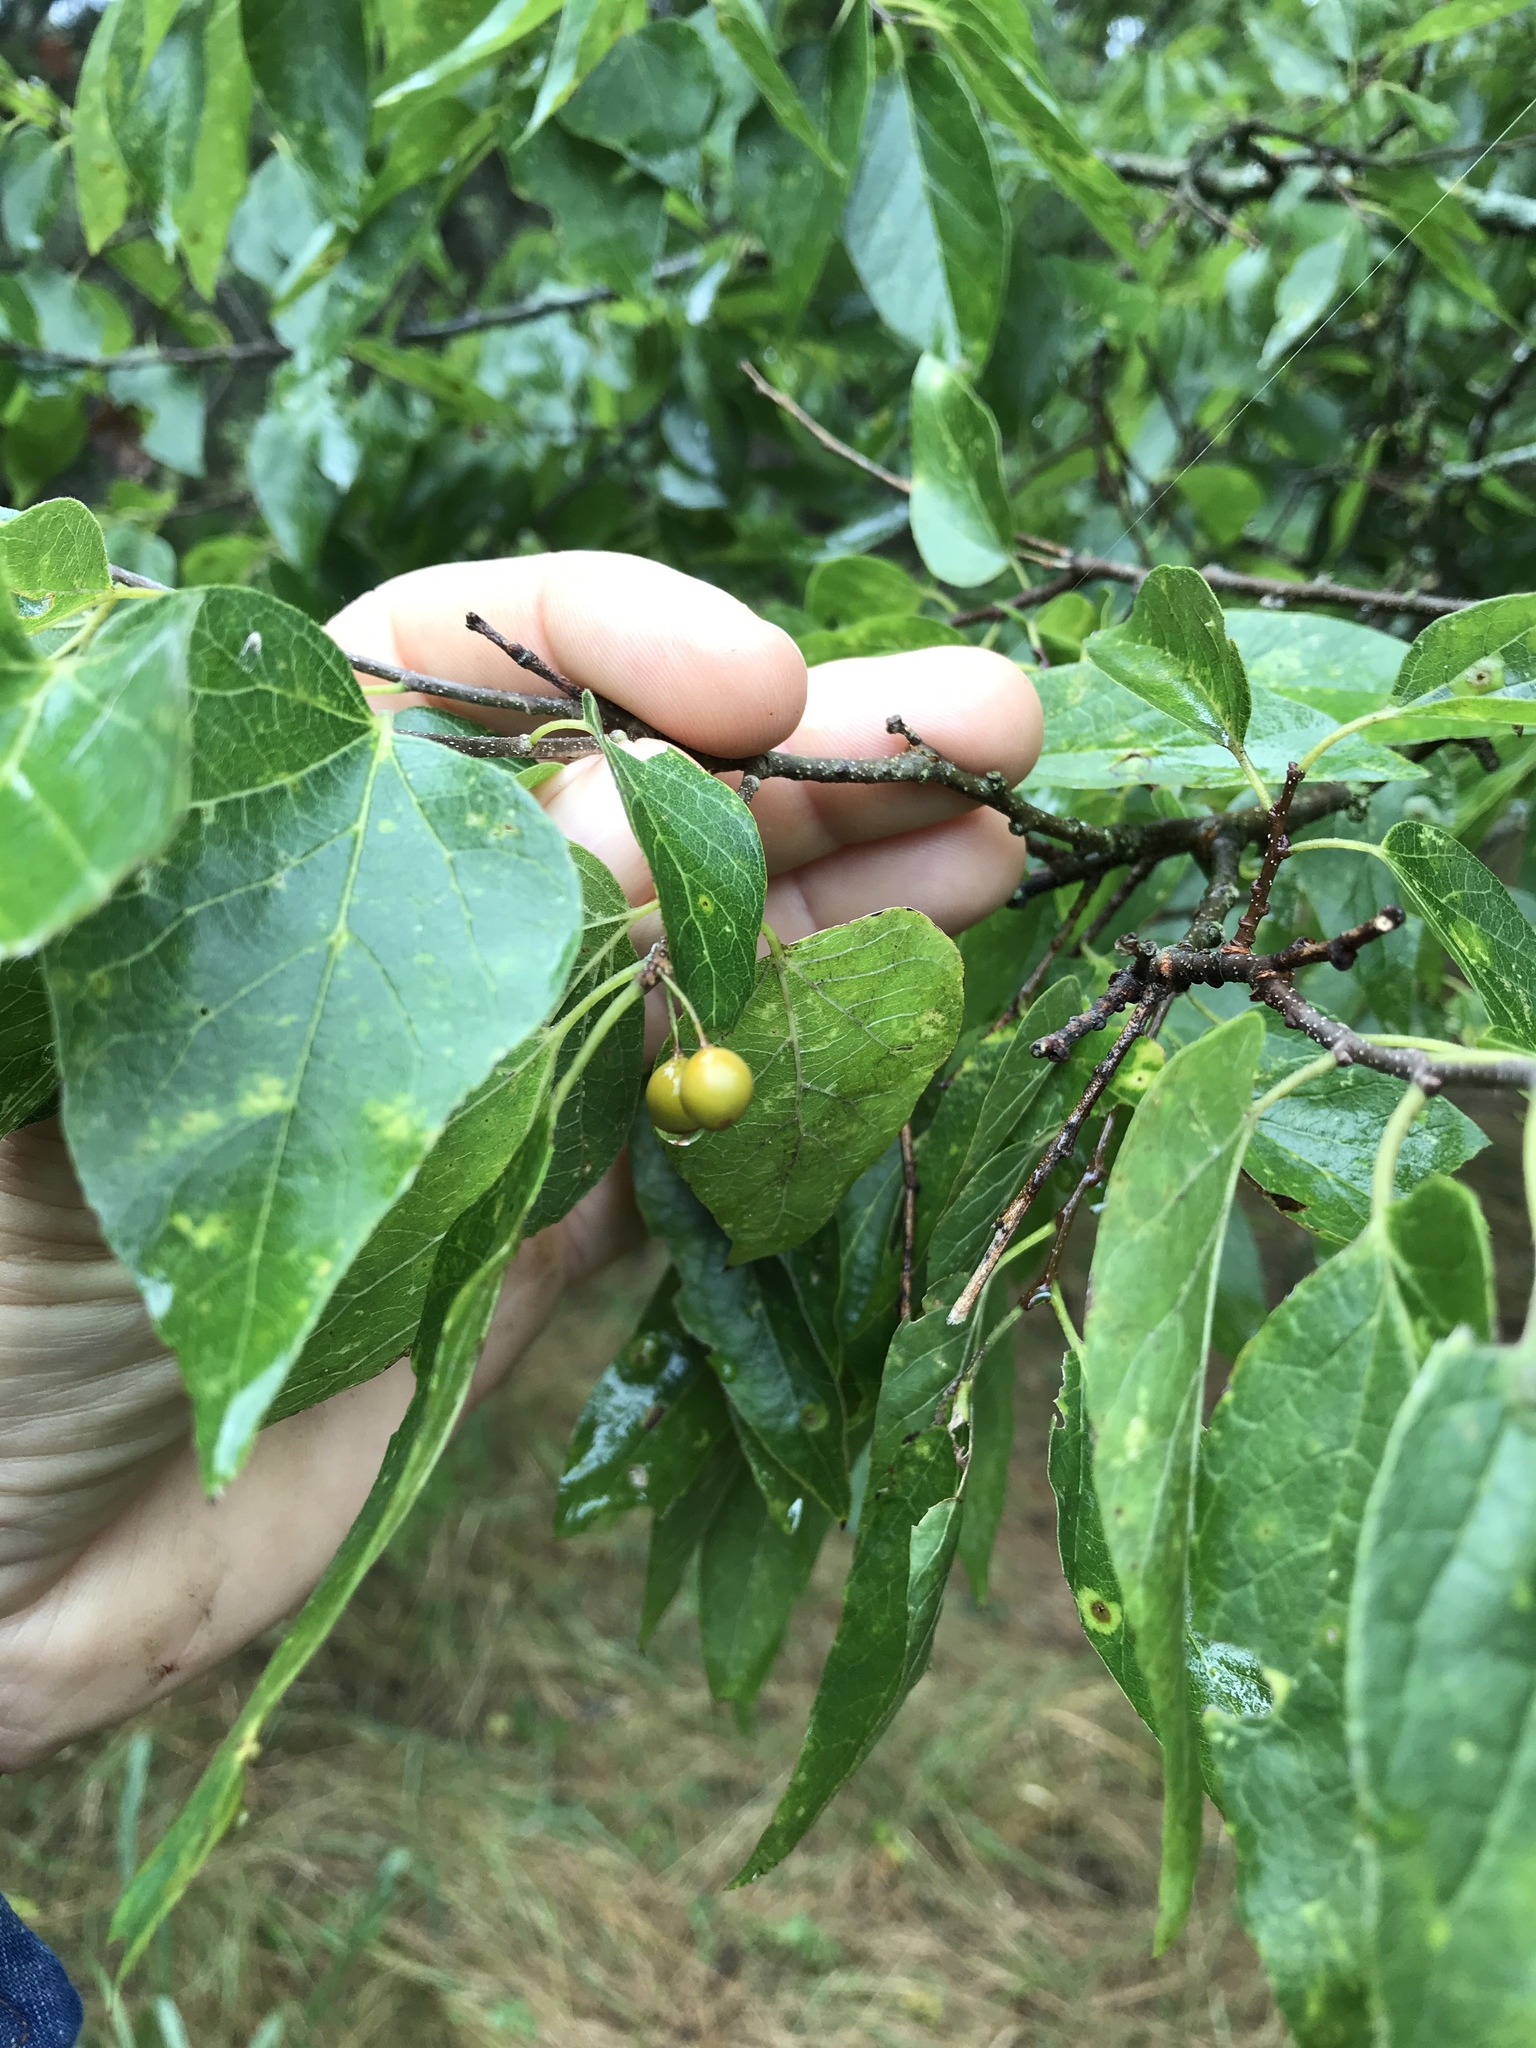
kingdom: Plantae
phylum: Tracheophyta
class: Magnoliopsida
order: Rosales
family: Cannabaceae
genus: Celtis
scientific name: Celtis laevigata
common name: Sugarberry
